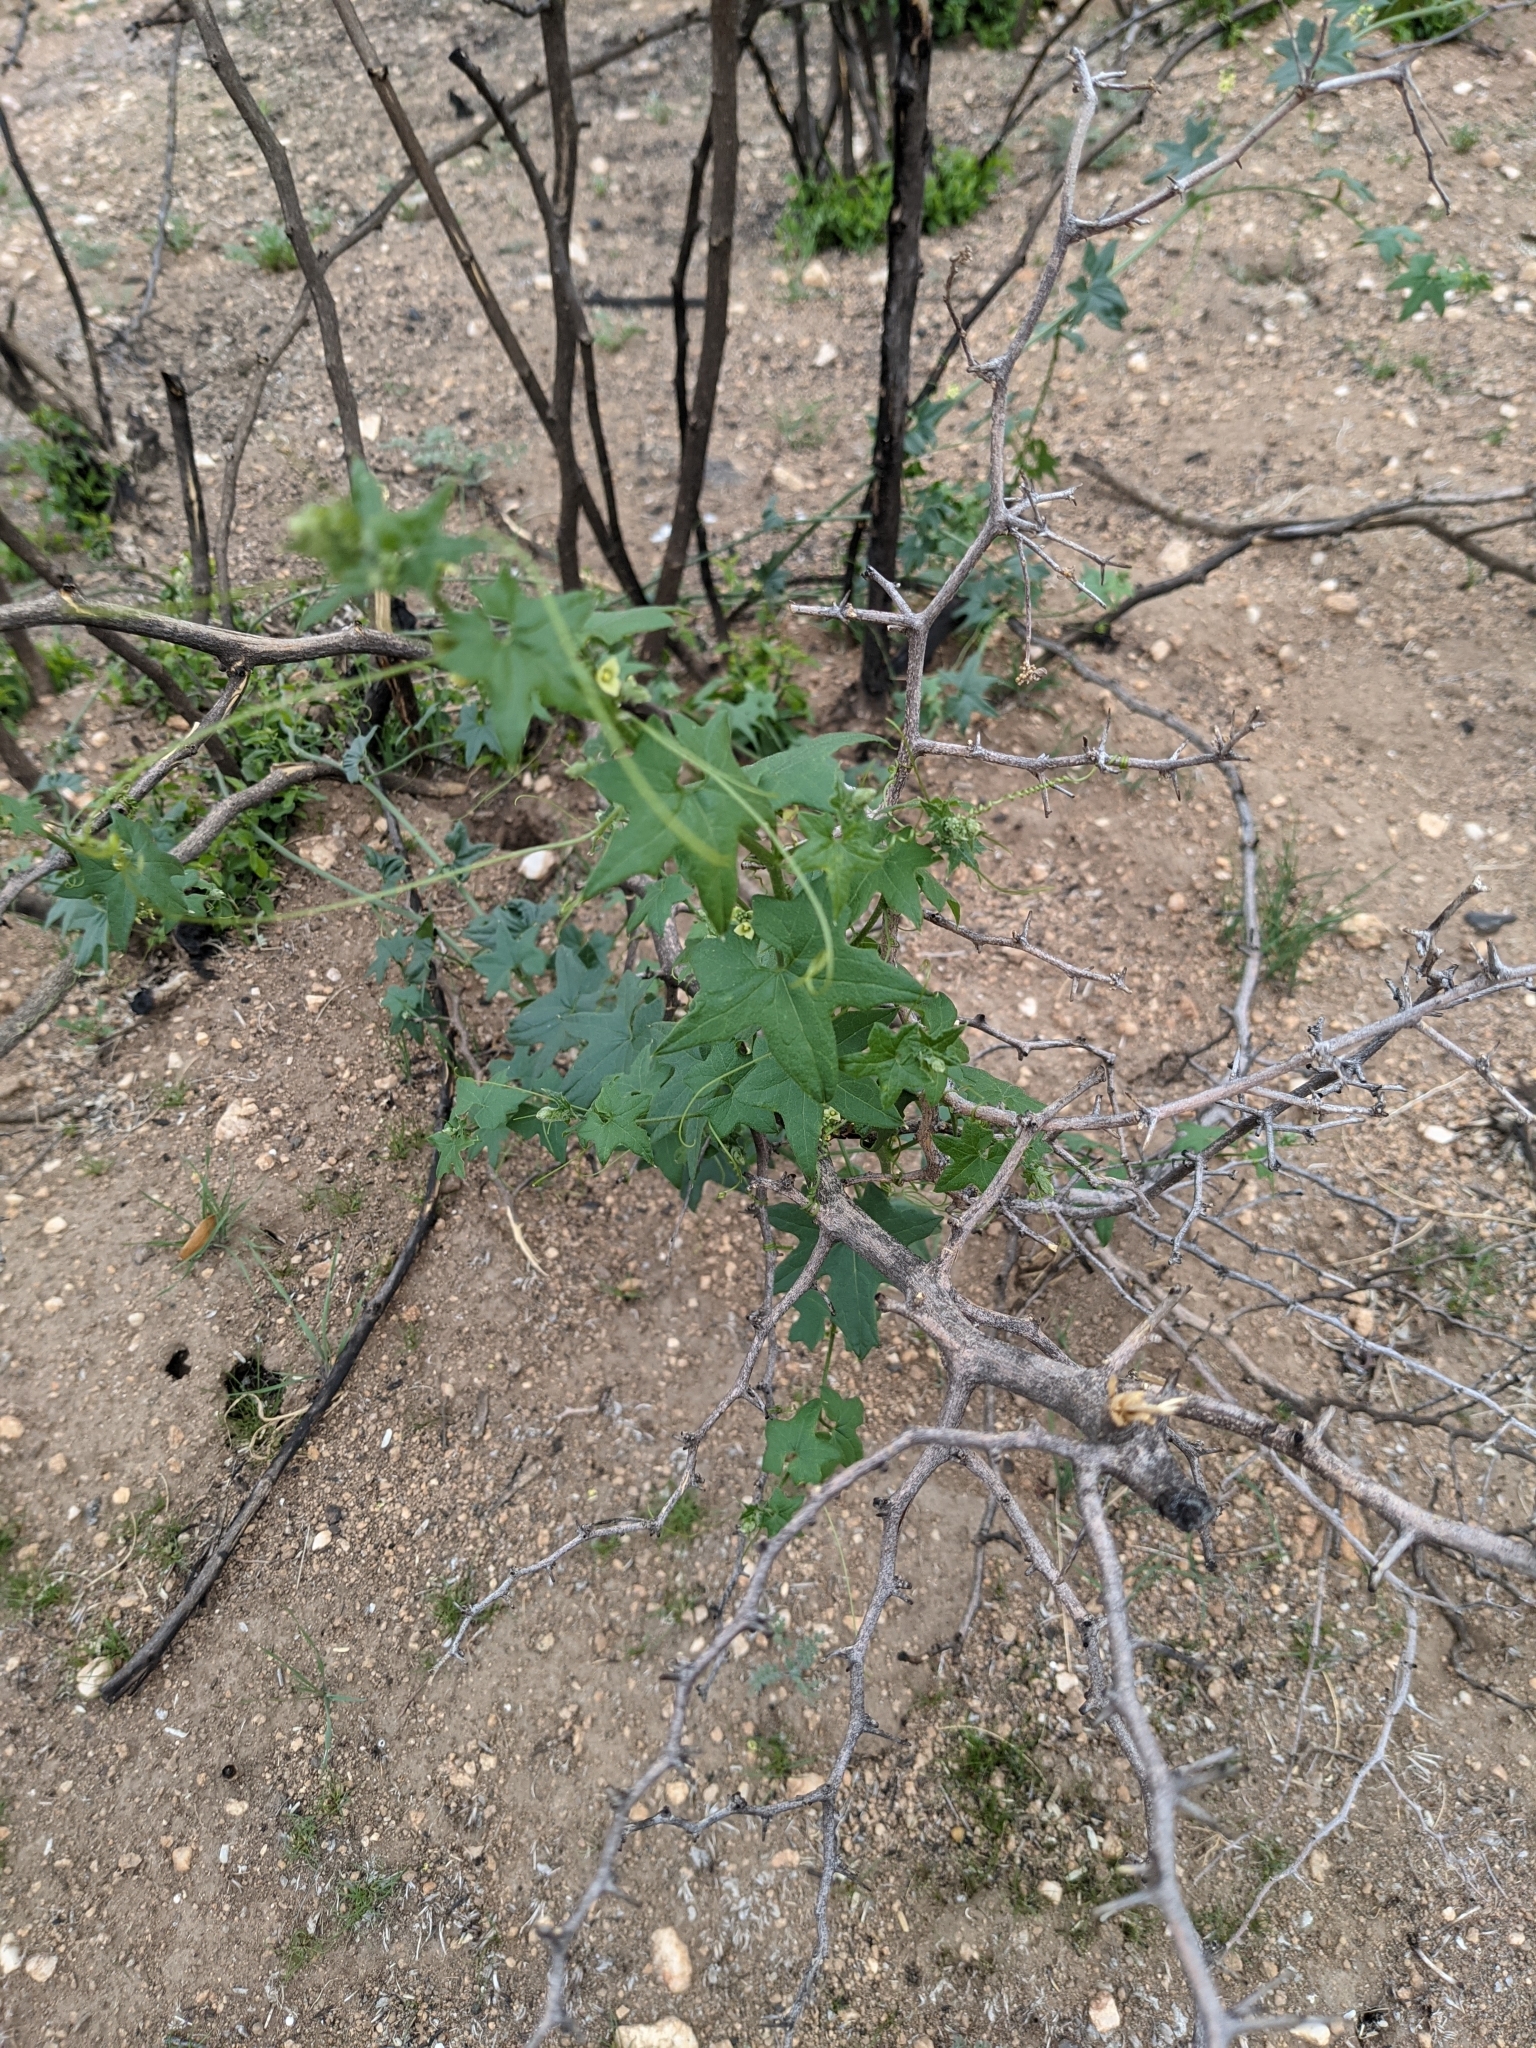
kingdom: Plantae
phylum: Tracheophyta
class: Magnoliopsida
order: Cucurbitales
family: Cucurbitaceae
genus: Marah
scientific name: Marah gilensis
